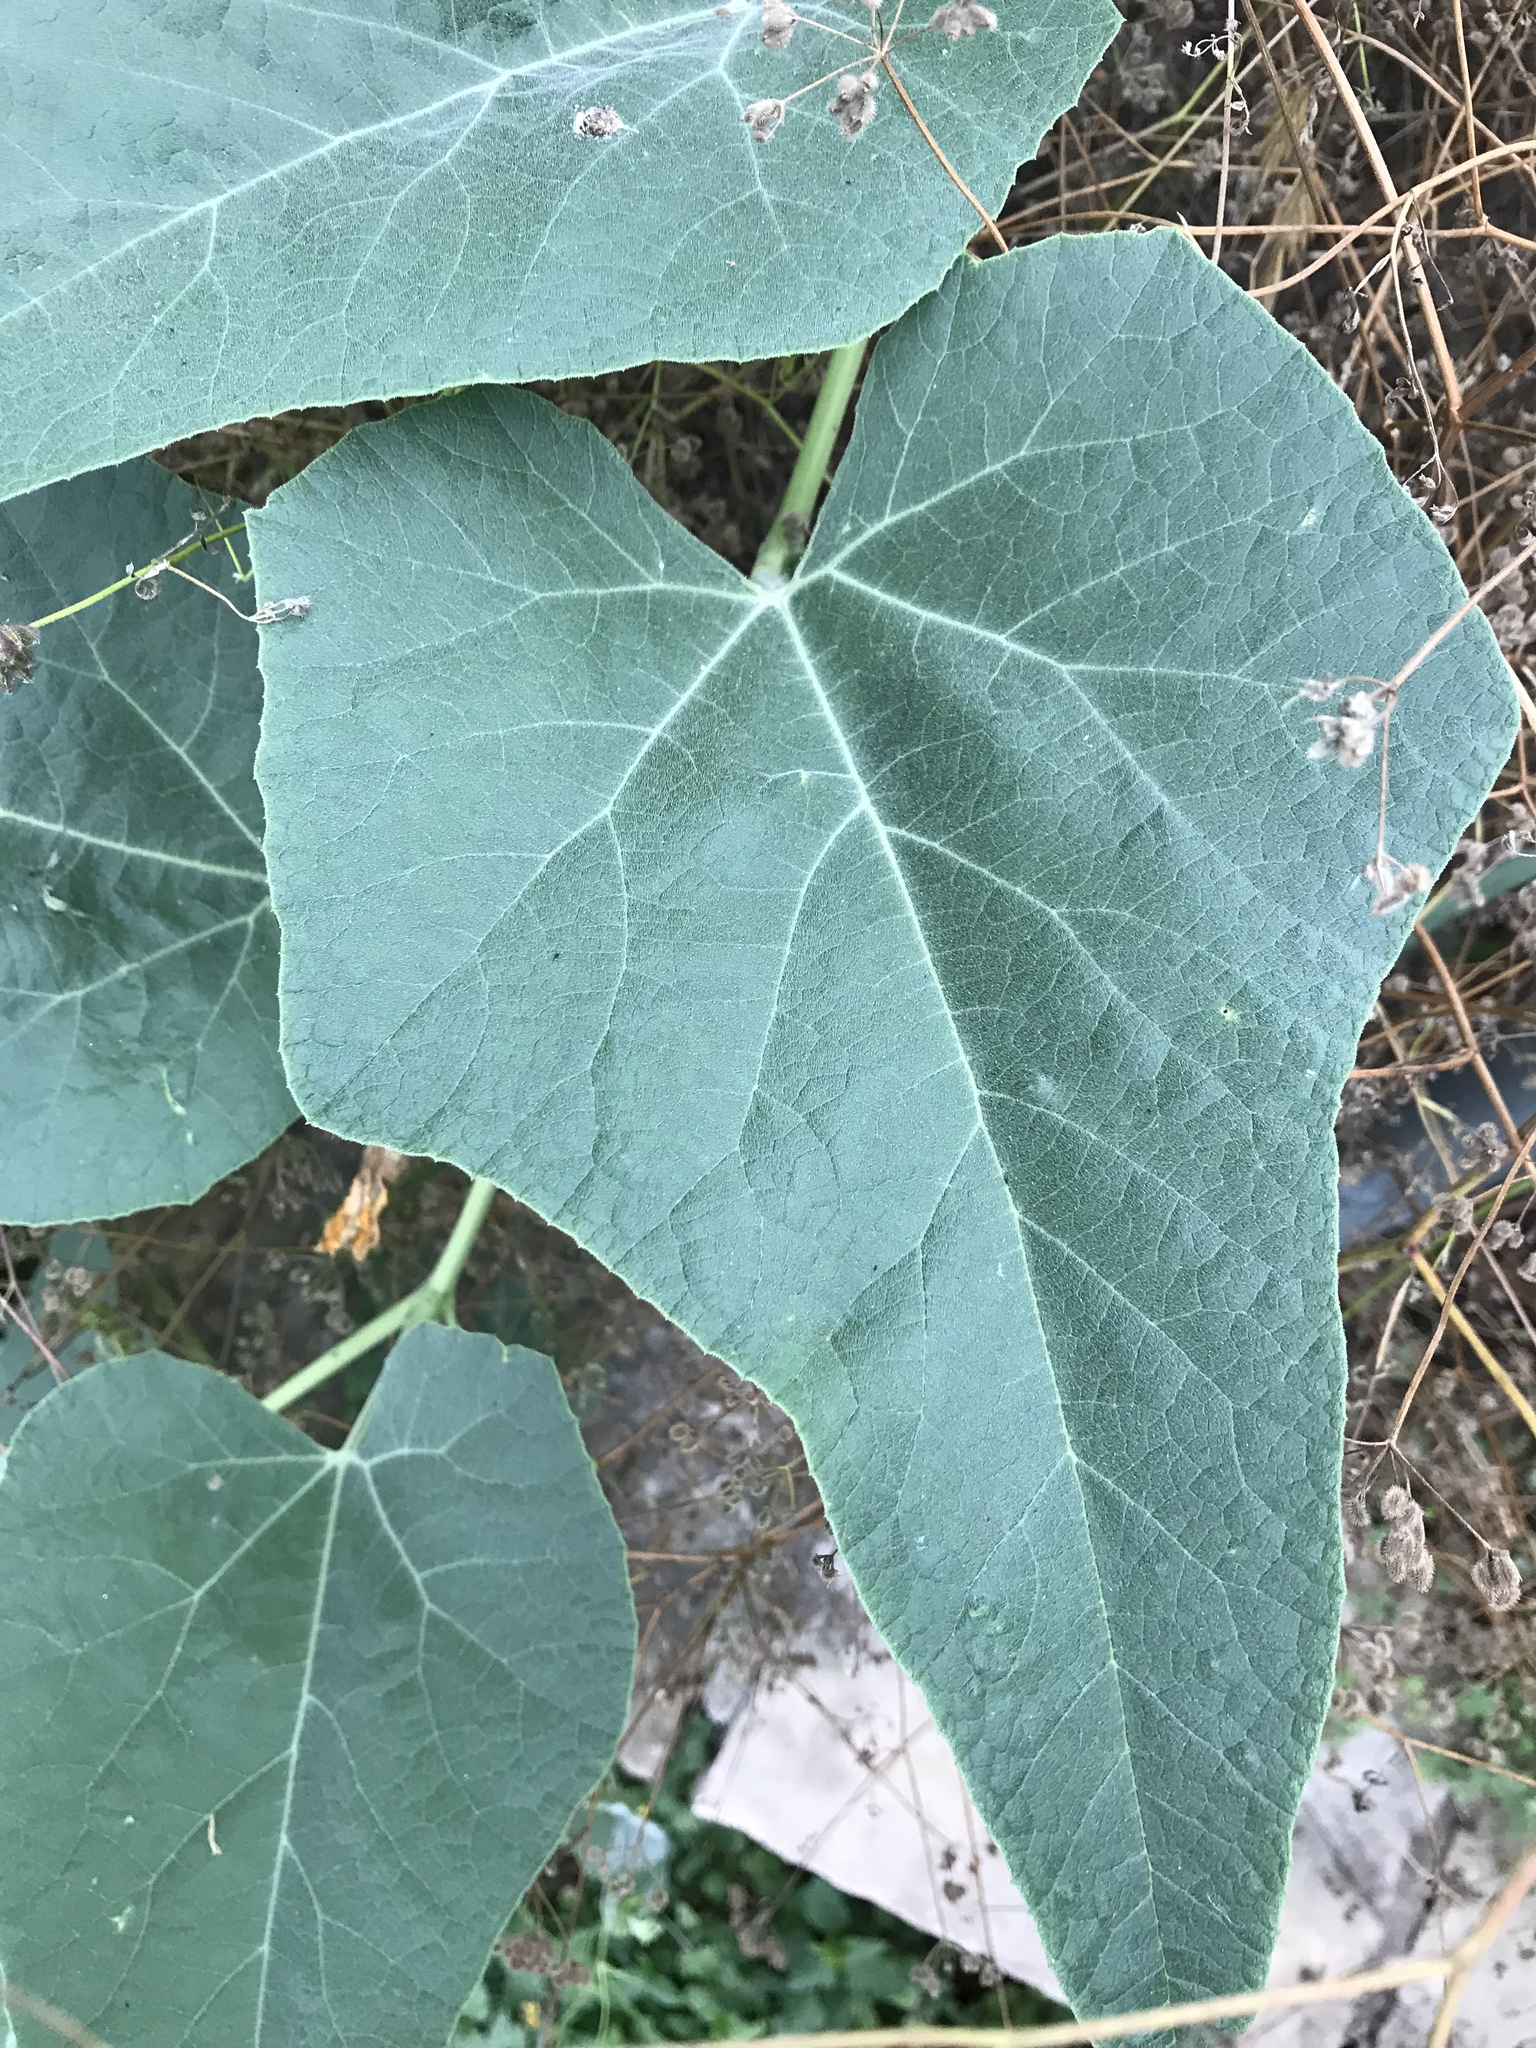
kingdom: Plantae
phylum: Tracheophyta
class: Magnoliopsida
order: Cucurbitales
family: Cucurbitaceae
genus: Cucurbita
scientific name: Cucurbita foetidissima
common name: Buffalo gourd
